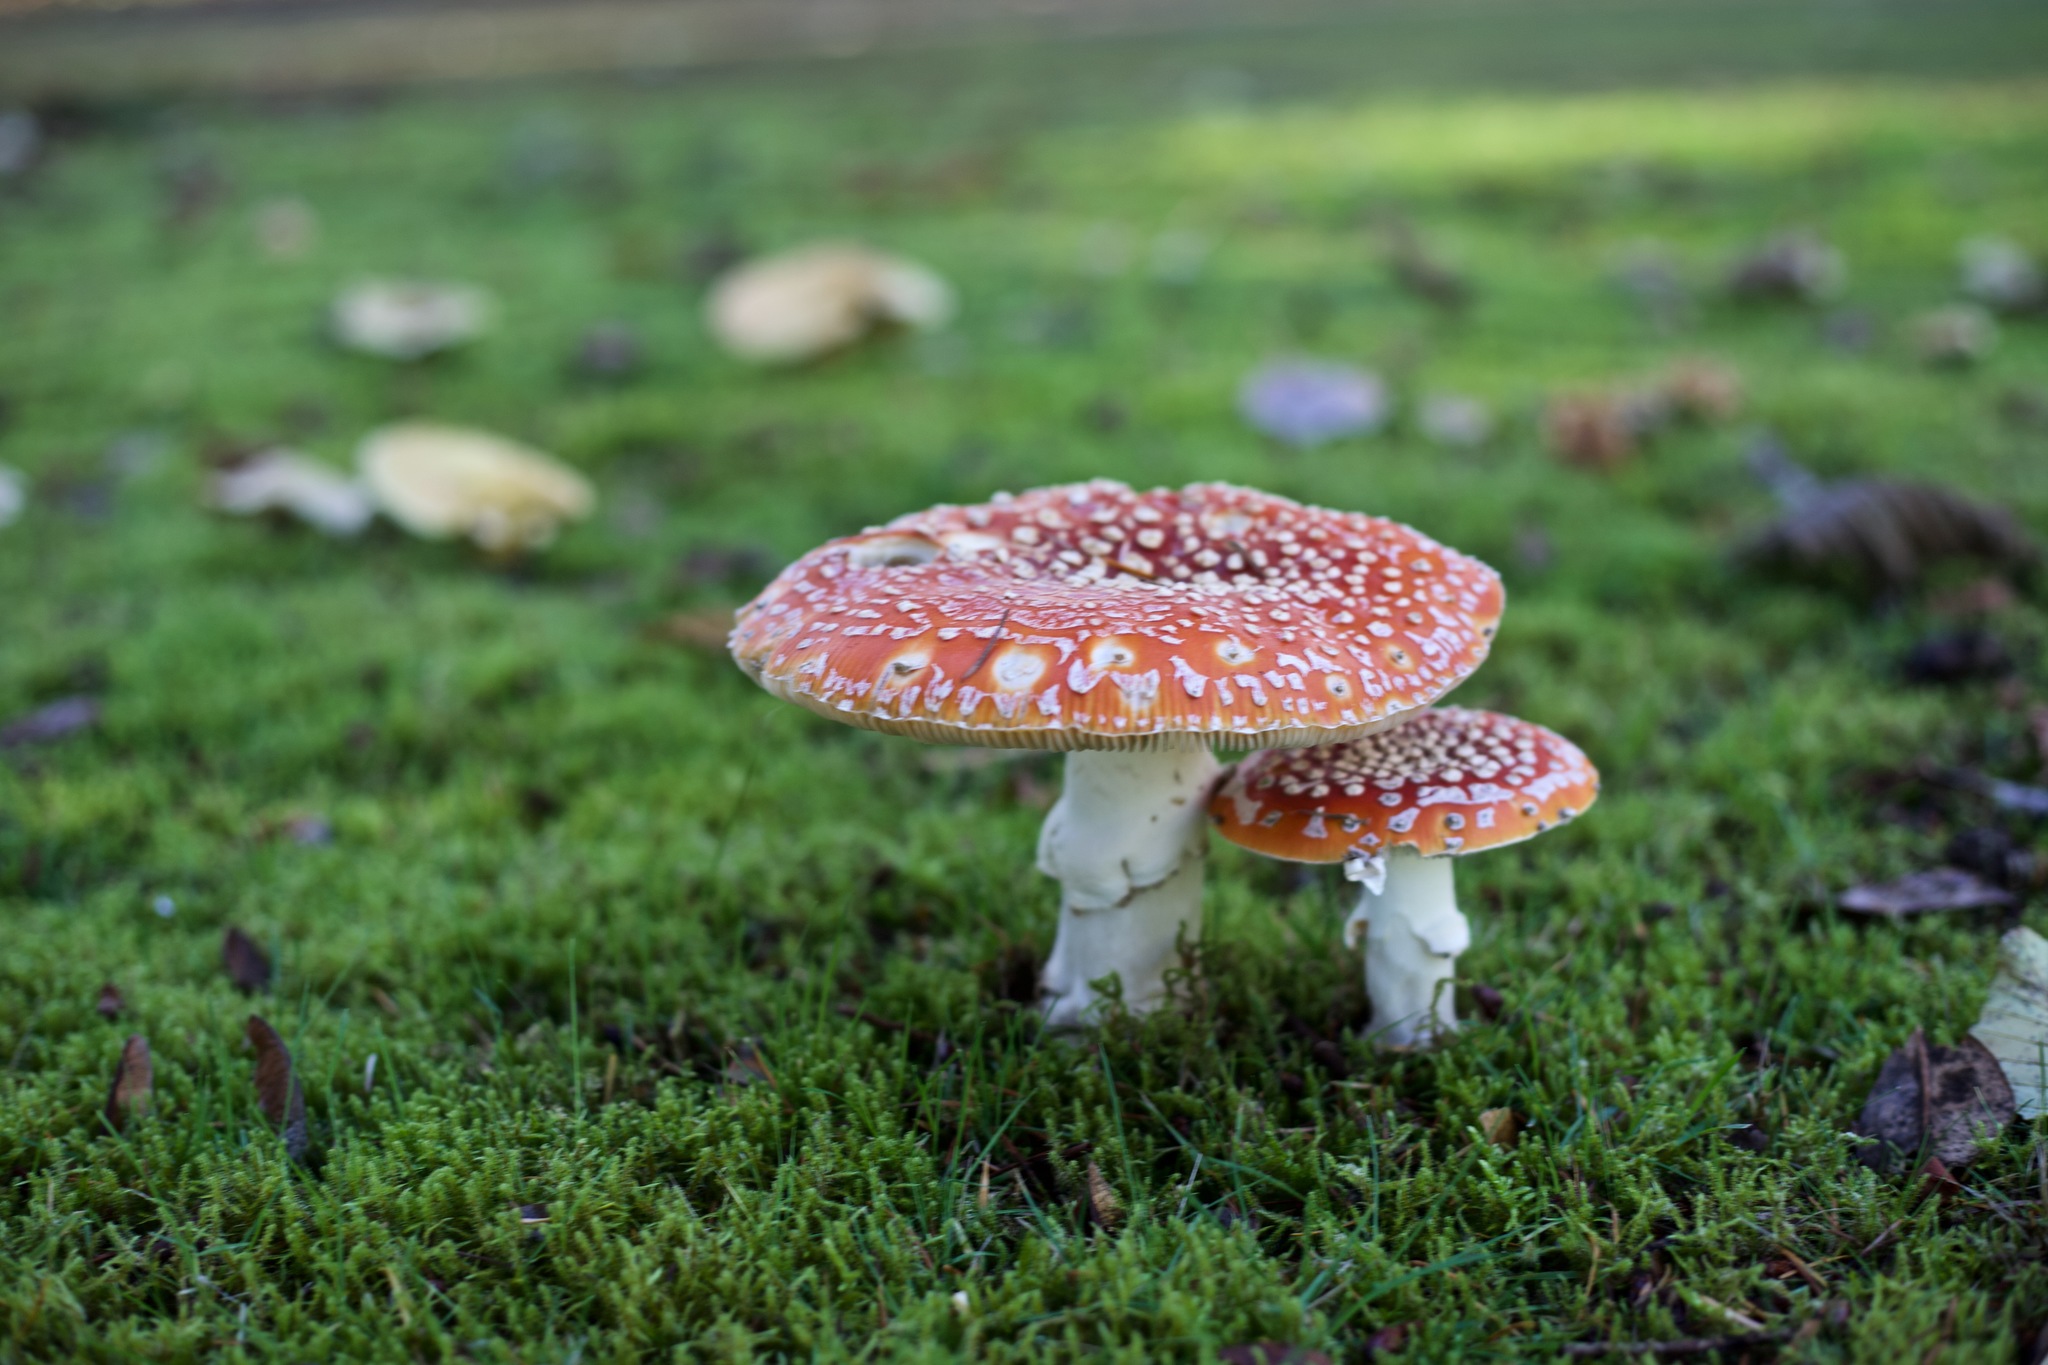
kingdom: Fungi
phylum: Basidiomycota
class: Agaricomycetes
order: Agaricales
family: Amanitaceae
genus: Amanita
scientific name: Amanita muscaria
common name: Fly agaric
